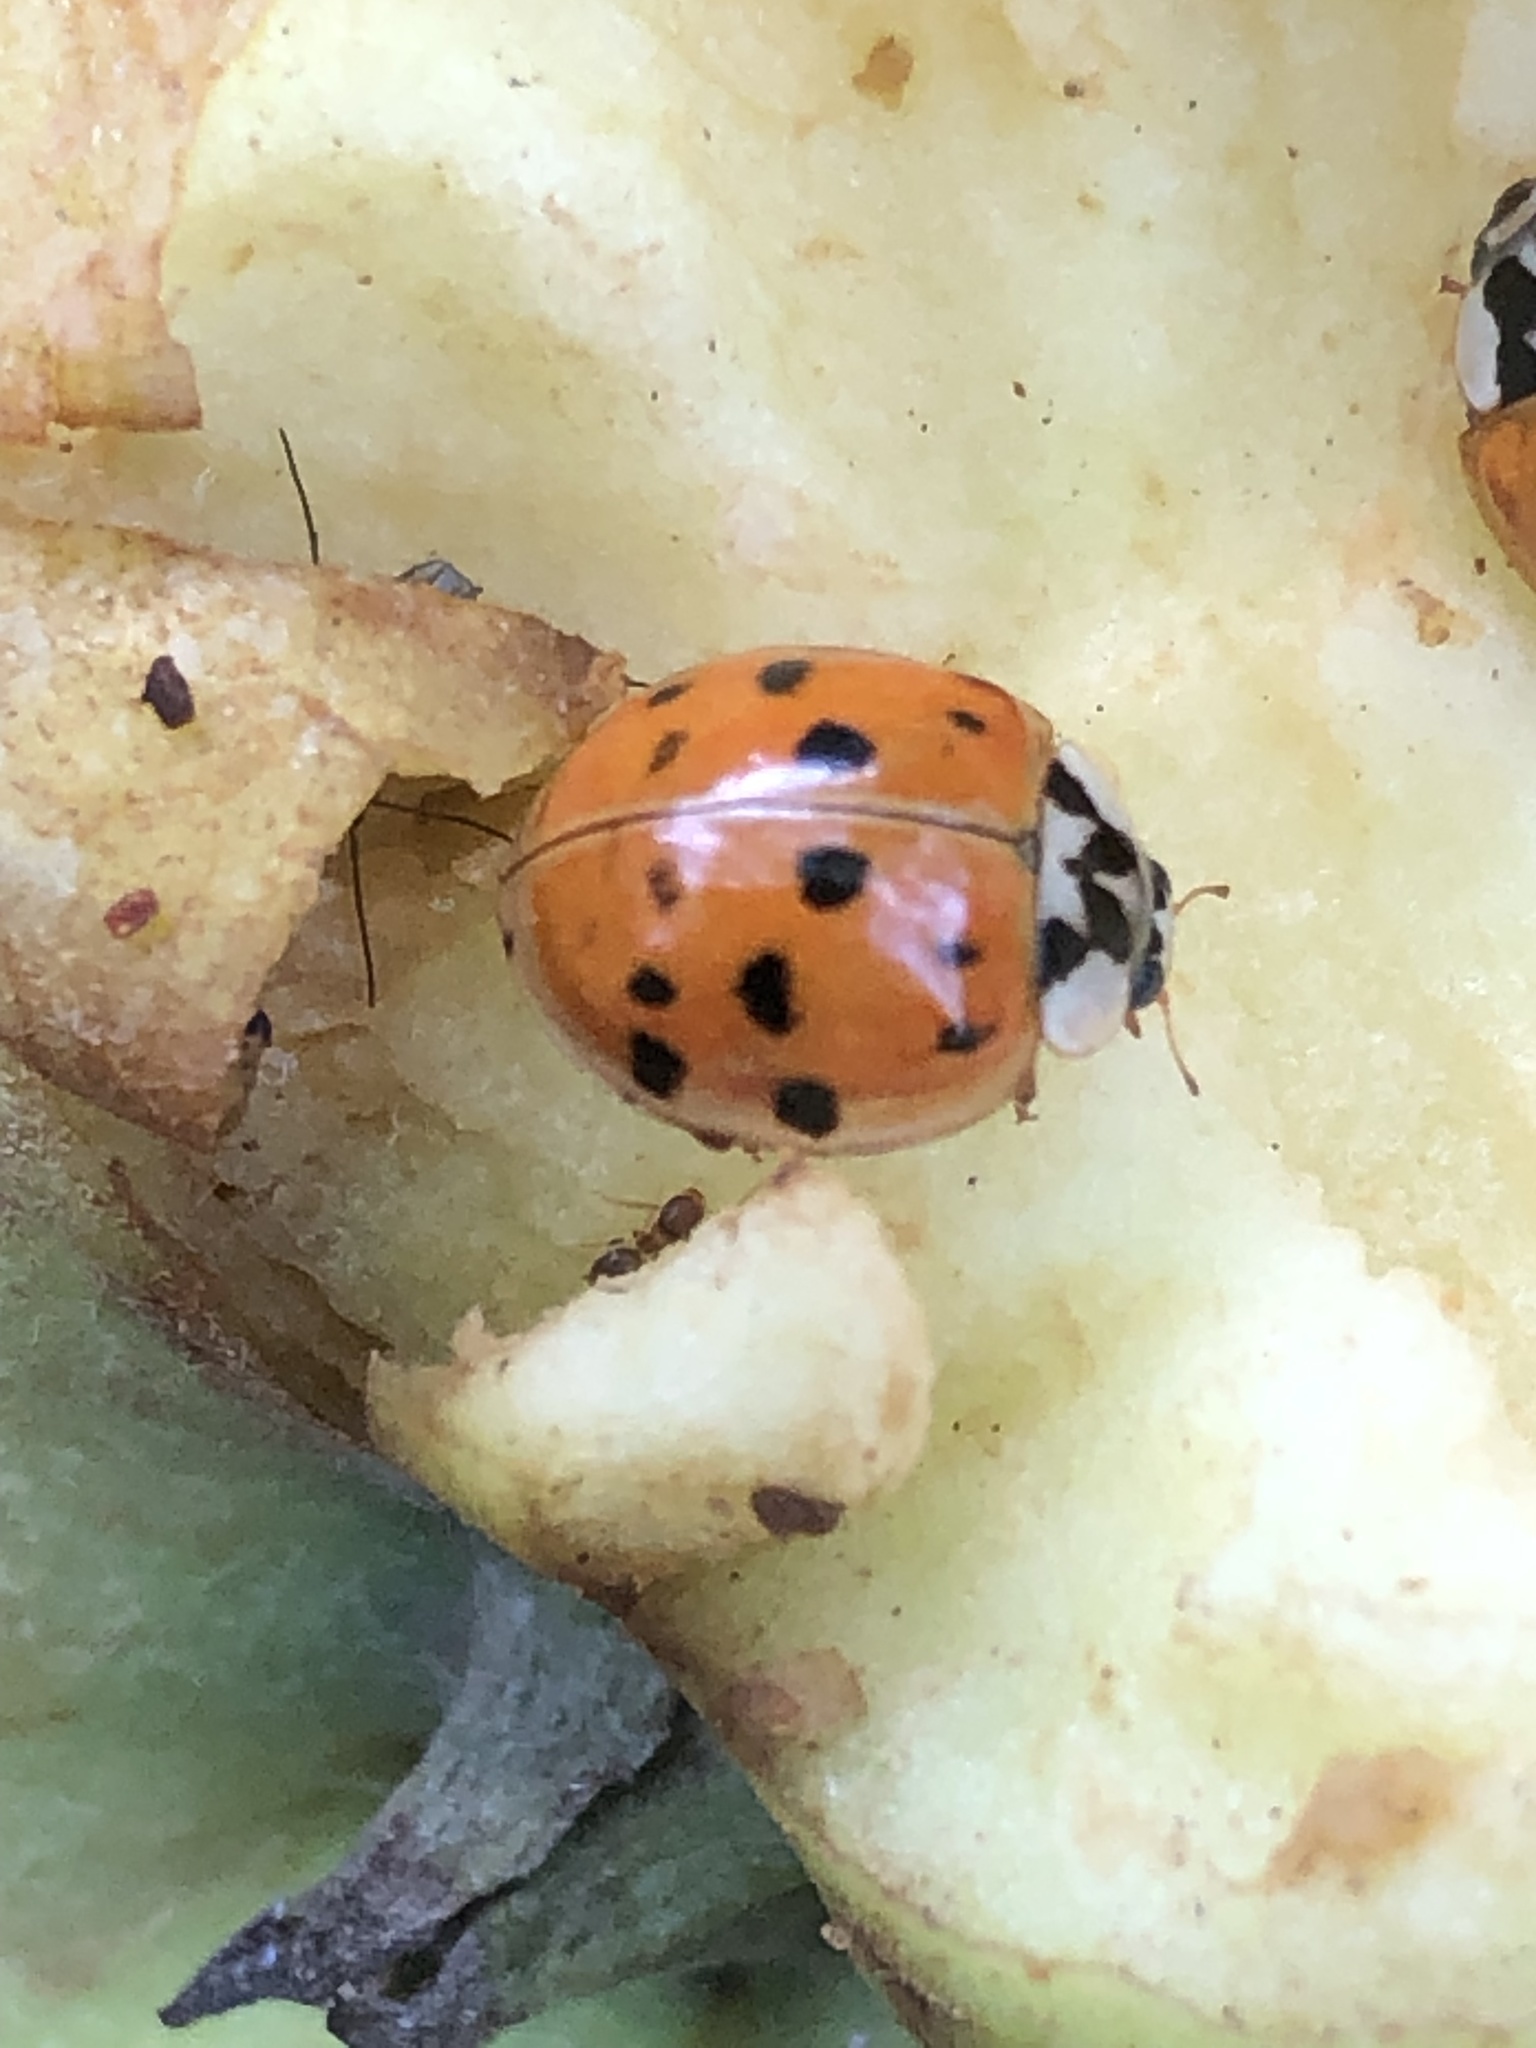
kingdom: Animalia
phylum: Arthropoda
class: Insecta
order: Coleoptera
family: Coccinellidae
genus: Harmonia
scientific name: Harmonia axyridis
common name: Harlequin ladybird
